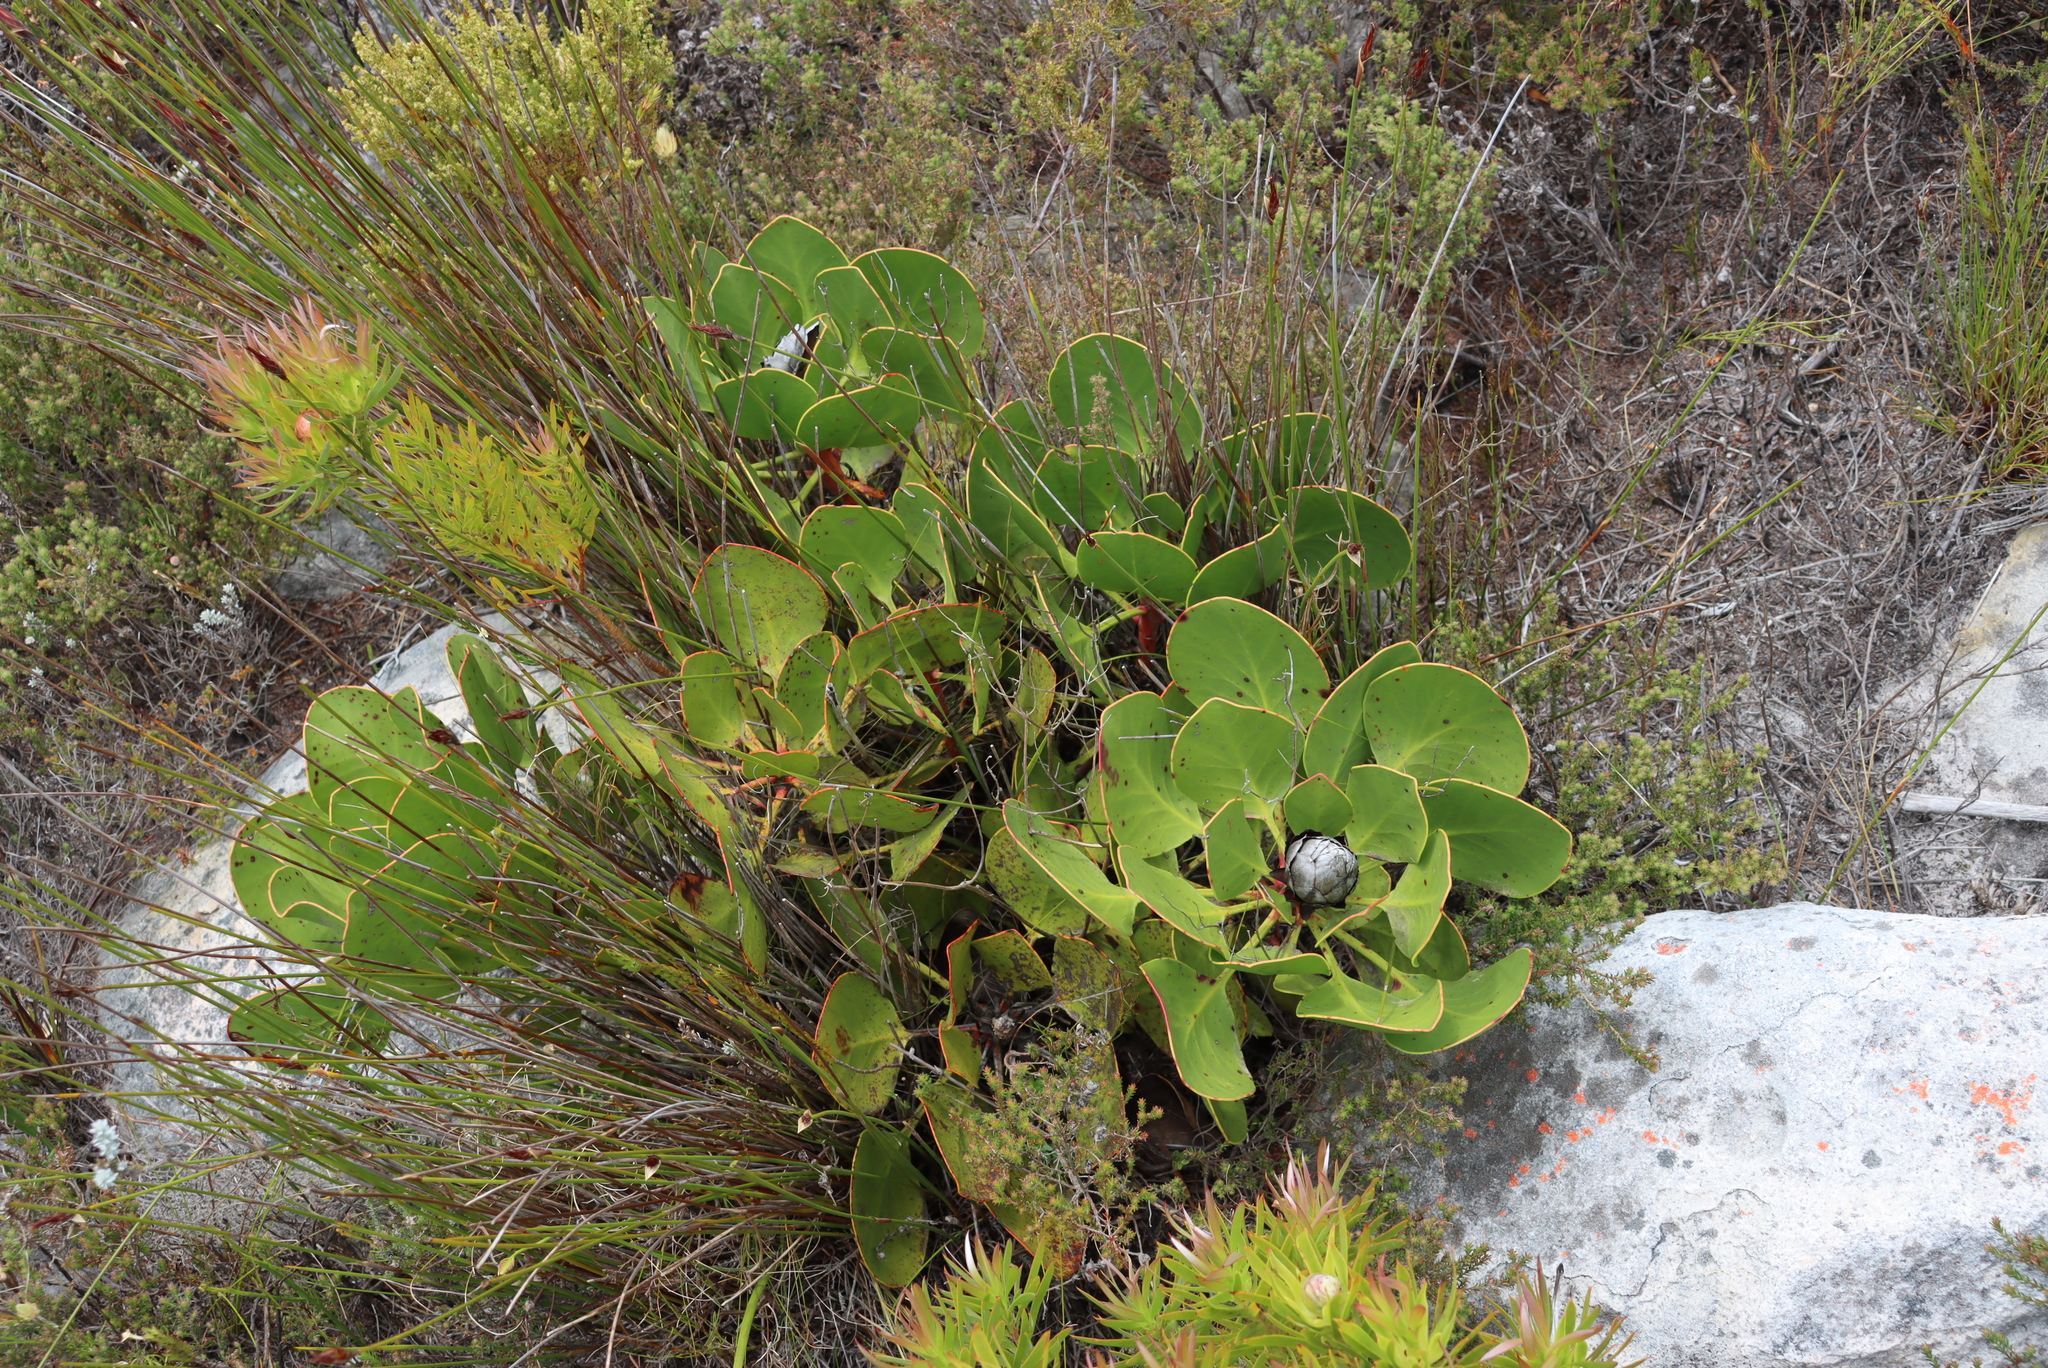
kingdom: Plantae
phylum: Tracheophyta
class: Magnoliopsida
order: Proteales
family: Proteaceae
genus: Protea
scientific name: Protea cynaroides
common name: King protea
